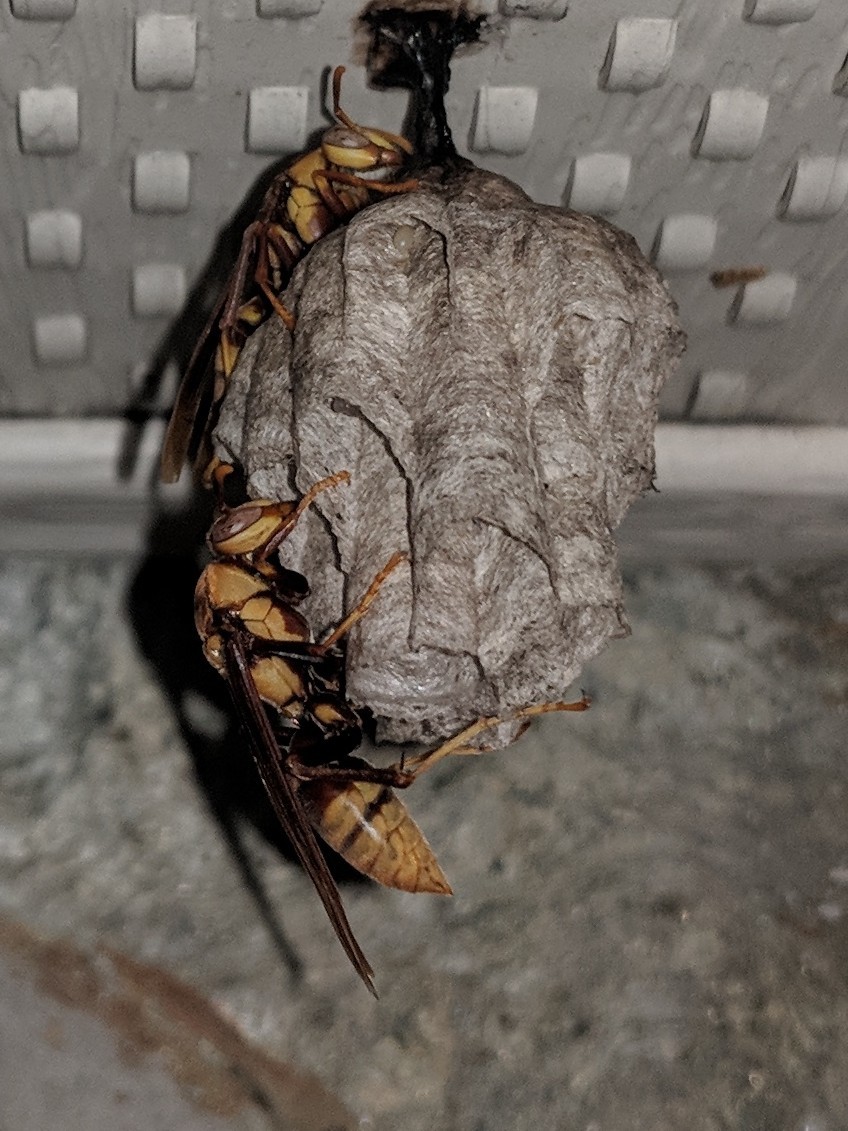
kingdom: Animalia
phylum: Arthropoda
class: Insecta
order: Hymenoptera
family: Eumenidae
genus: Polistes
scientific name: Polistes major
